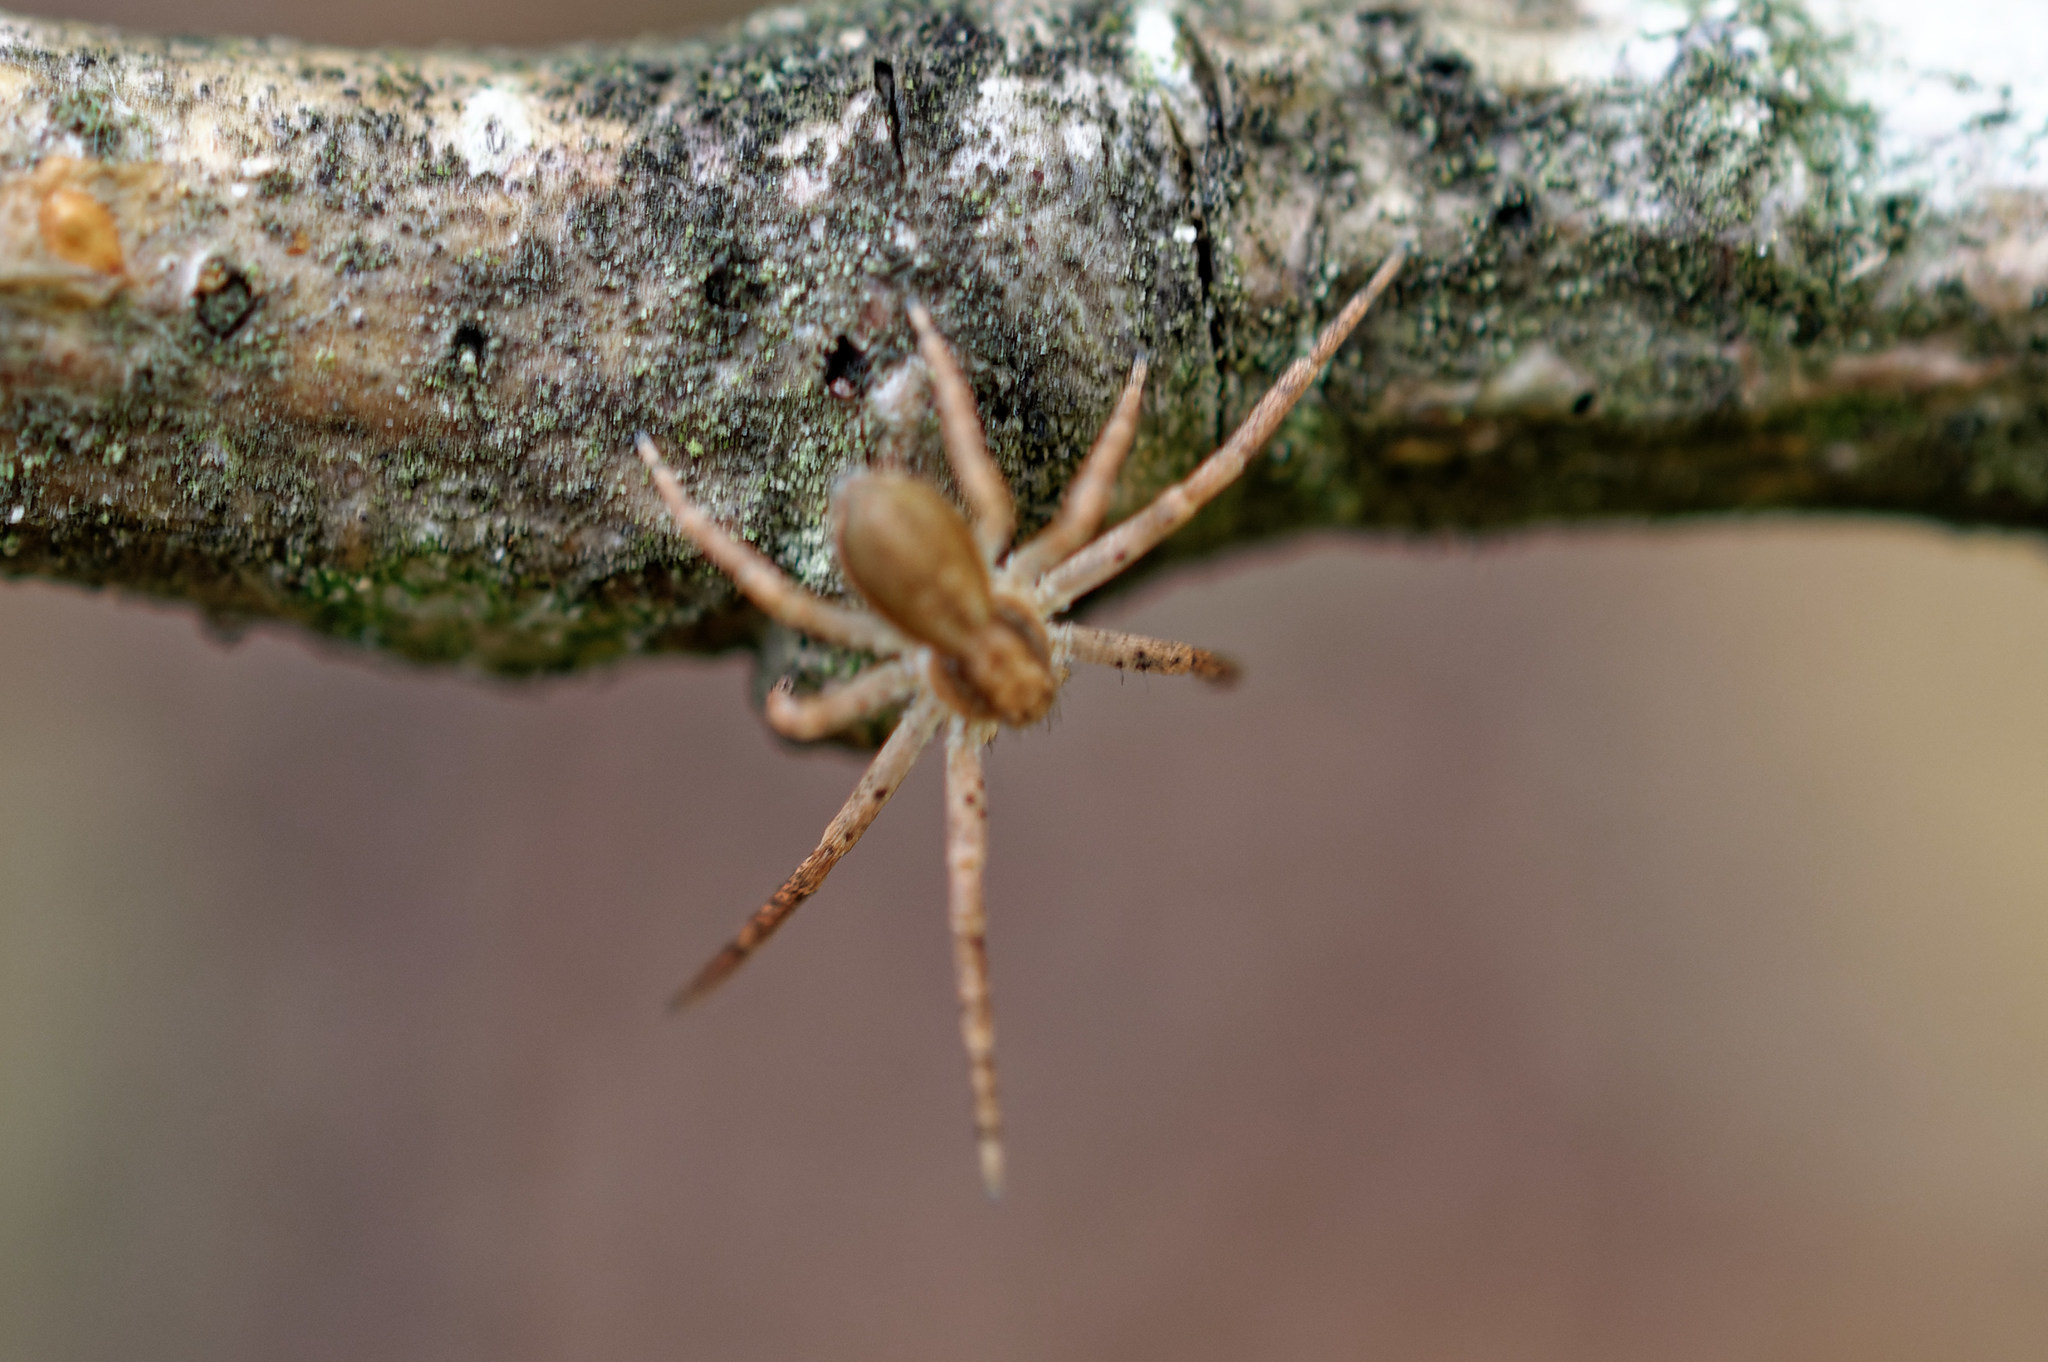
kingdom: Animalia
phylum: Arthropoda
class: Arachnida
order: Araneae
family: Philodromidae
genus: Philodromus
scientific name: Philodromus dispar
